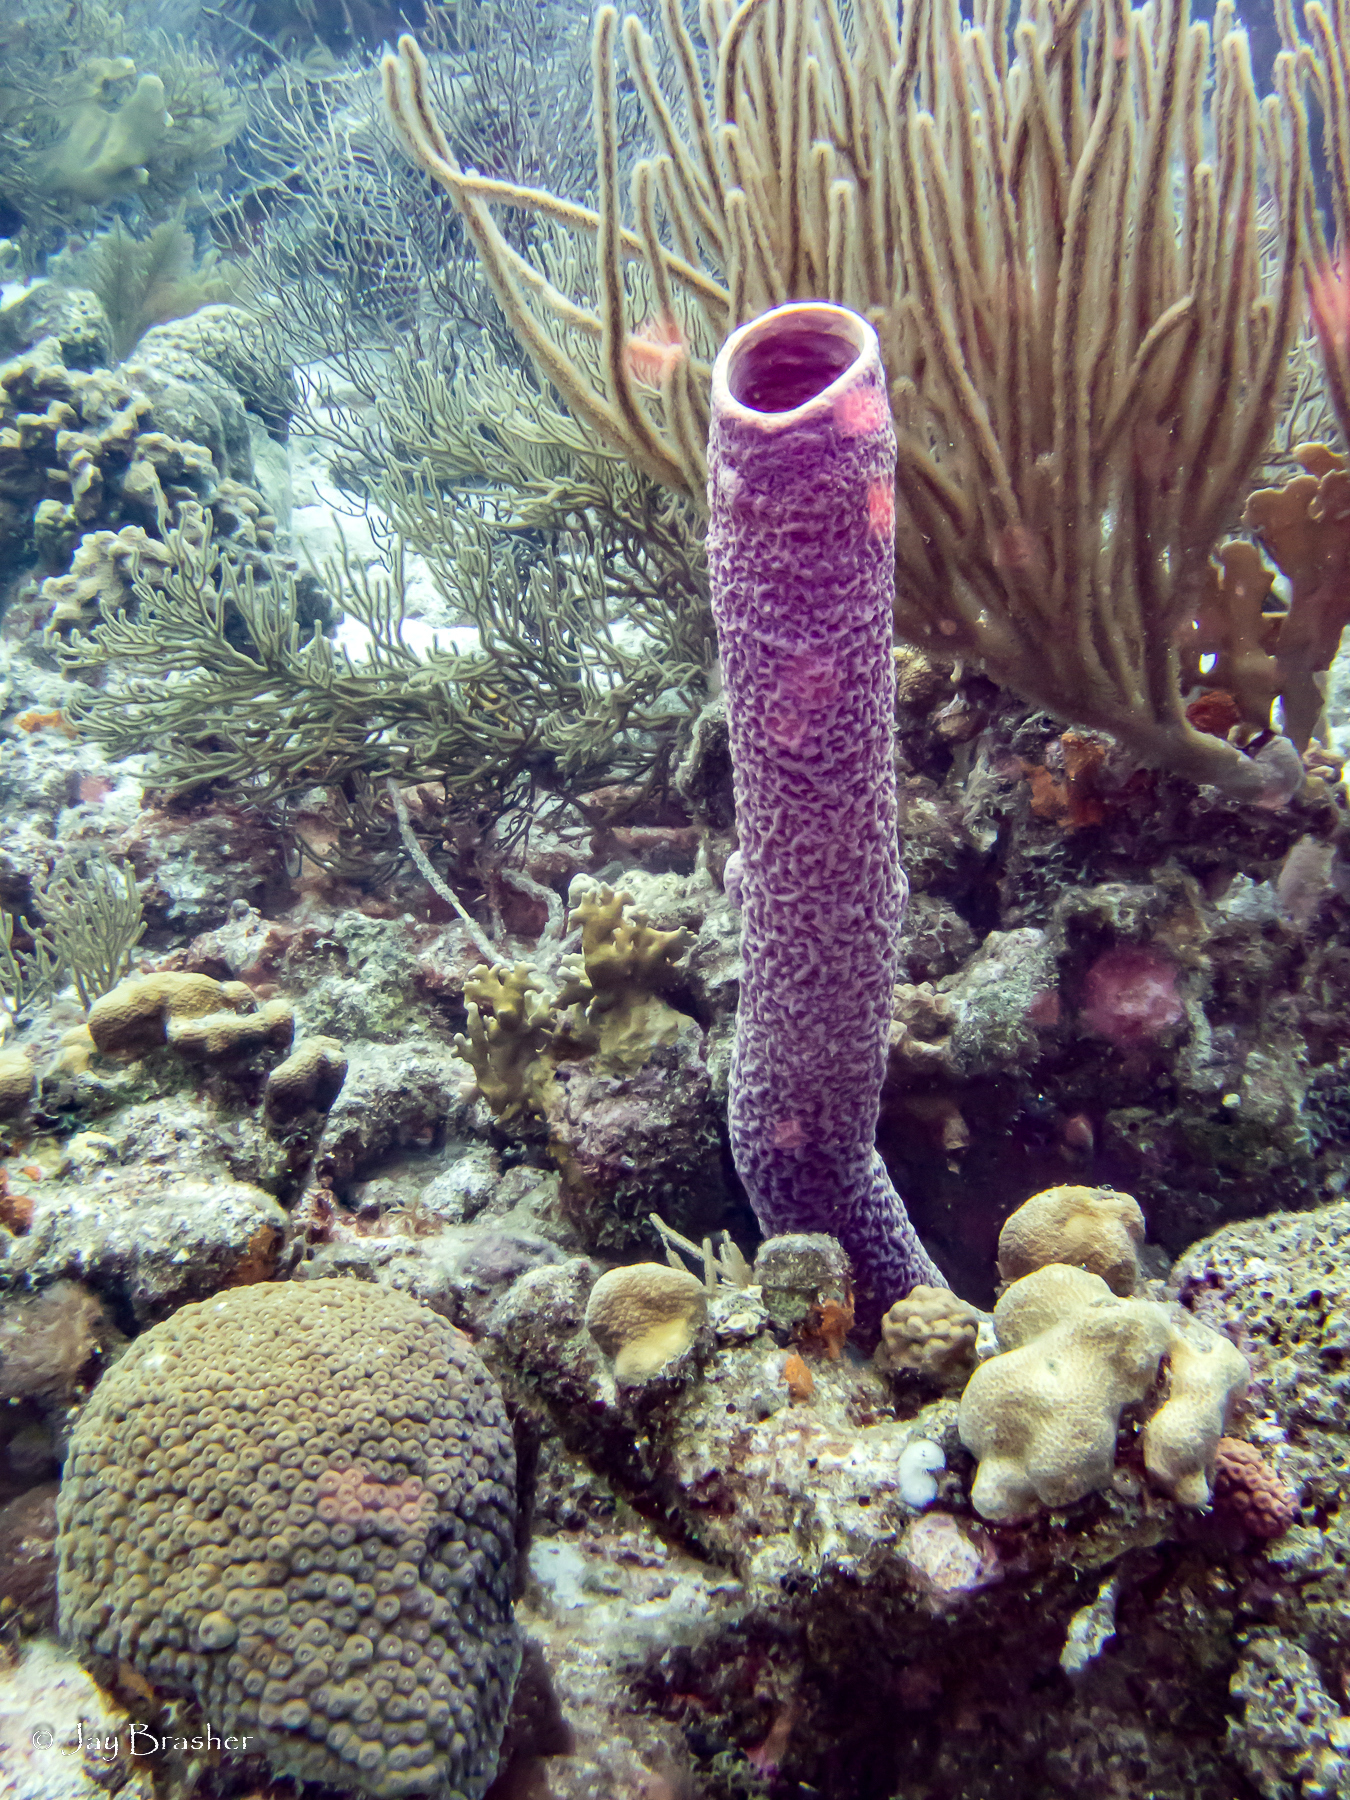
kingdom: Animalia
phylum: Porifera
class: Demospongiae
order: Verongiida
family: Aplysinidae
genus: Aplysina
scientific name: Aplysina archeri
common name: Stove-pipe sponge
